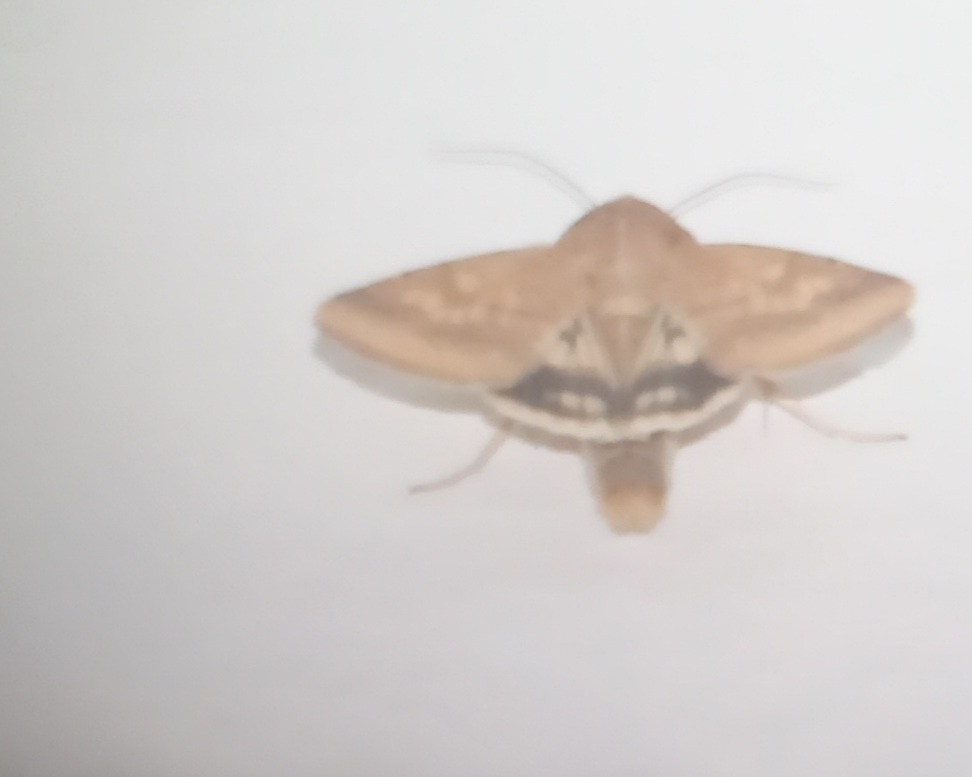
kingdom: Animalia
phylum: Arthropoda
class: Insecta
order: Lepidoptera
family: Noctuidae
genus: Helicoverpa
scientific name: Helicoverpa armigera
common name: Cotton bollworm
